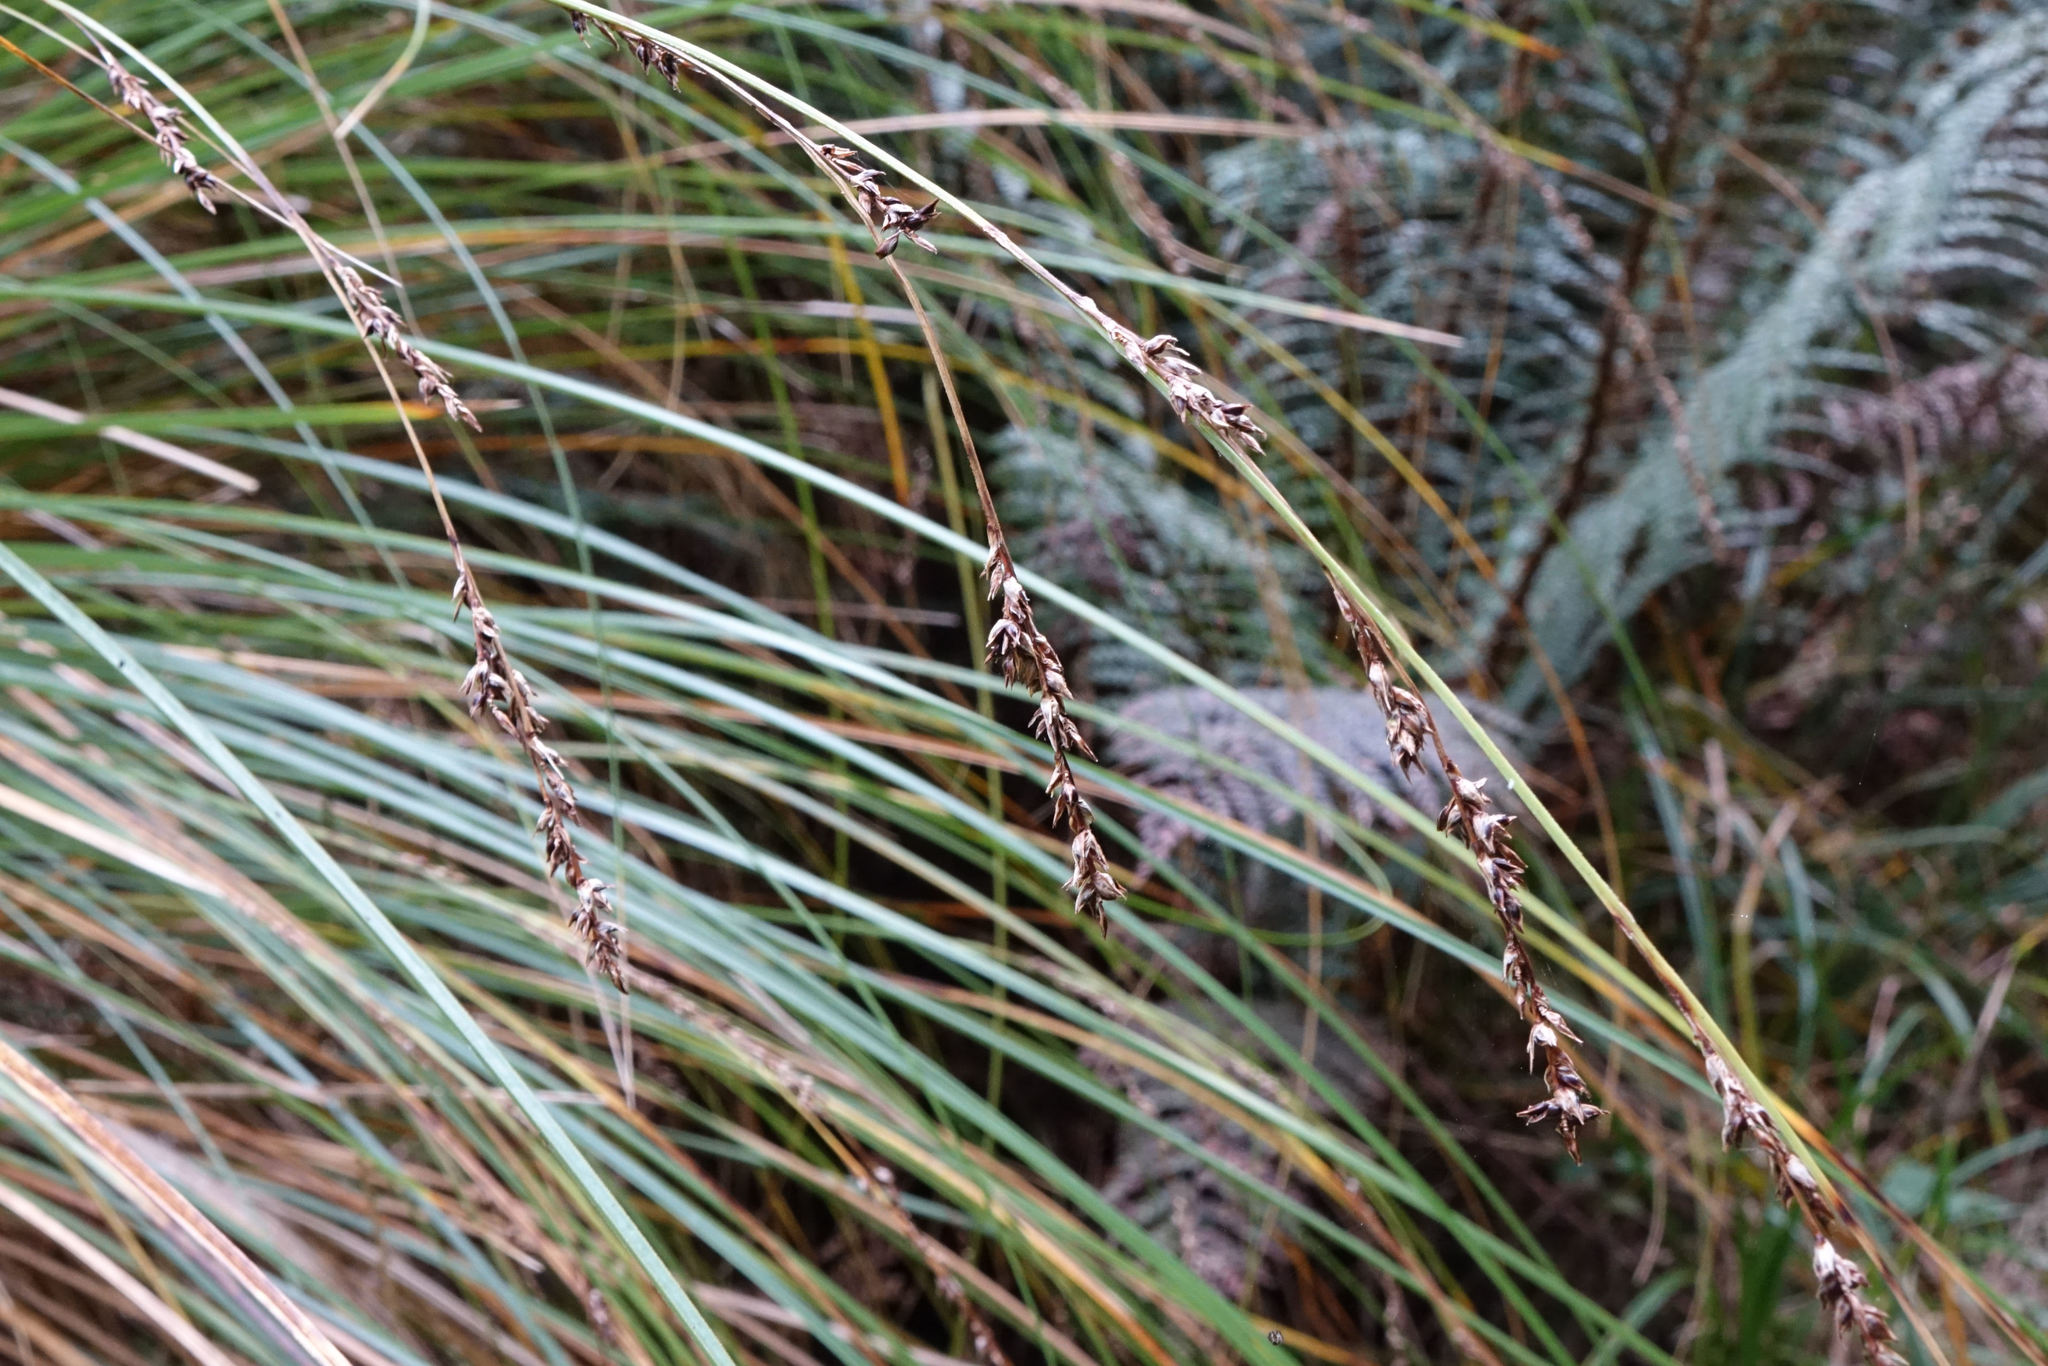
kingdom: Plantae
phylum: Tracheophyta
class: Liliopsida
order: Poales
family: Cyperaceae
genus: Carex
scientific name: Carex secta
